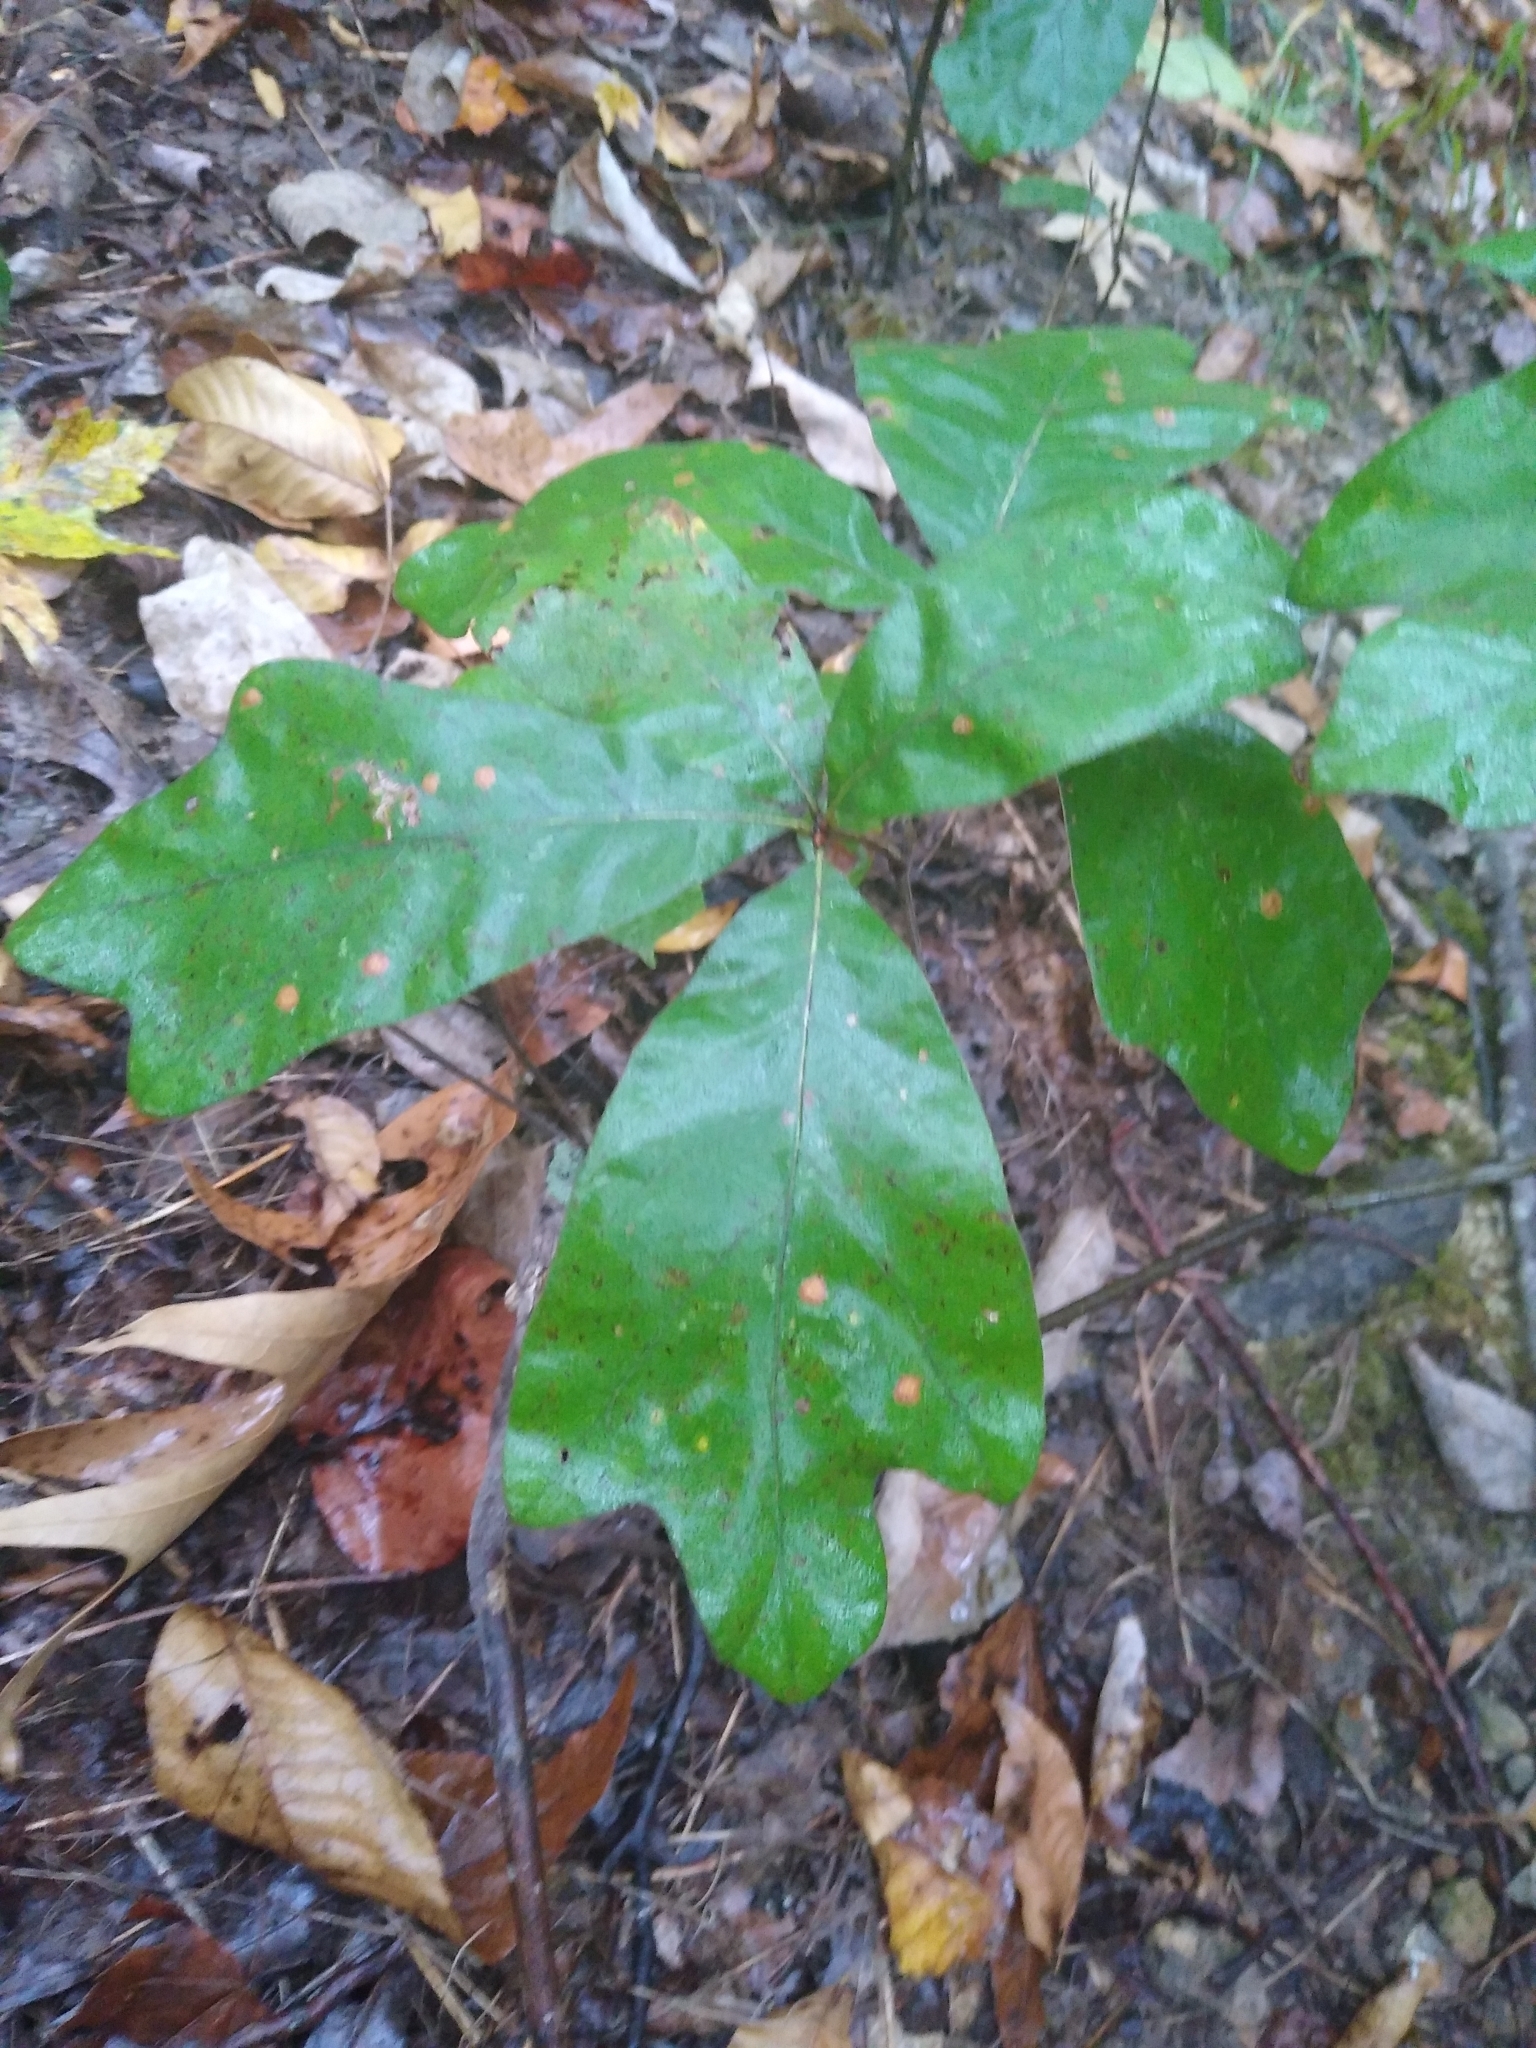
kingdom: Plantae
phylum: Tracheophyta
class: Magnoliopsida
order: Fagales
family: Fagaceae
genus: Quercus
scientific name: Quercus marilandica
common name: Blackjack oak
